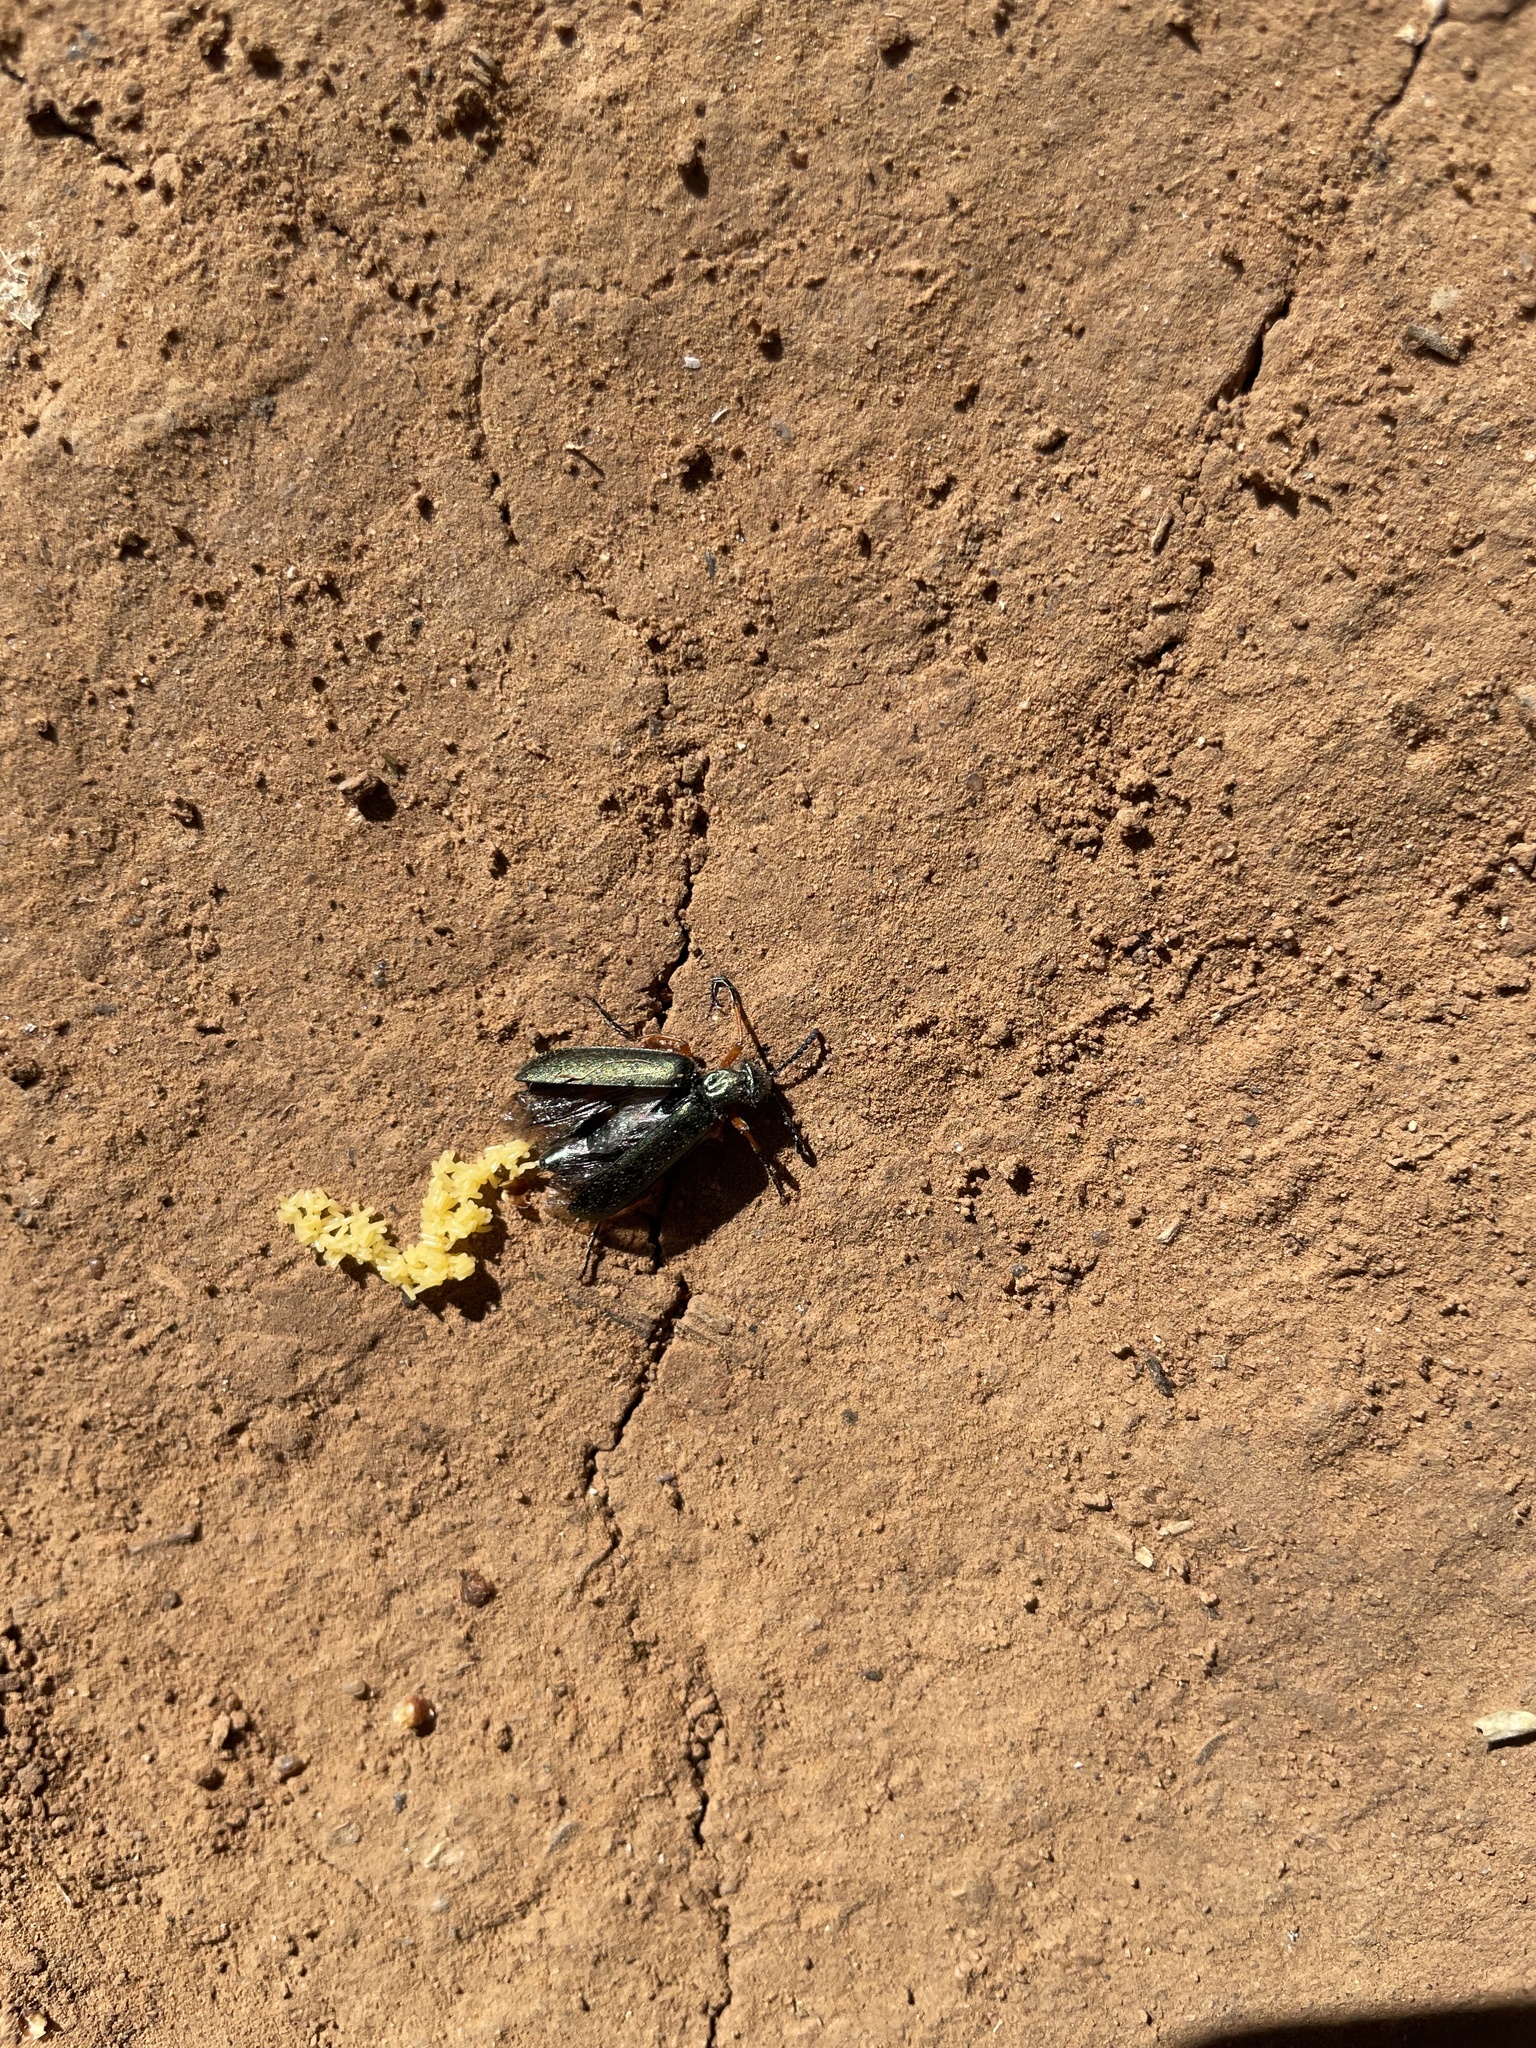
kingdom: Animalia
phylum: Arthropoda
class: Insecta
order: Coleoptera
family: Meloidae
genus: Lytta
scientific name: Lytta aenea
